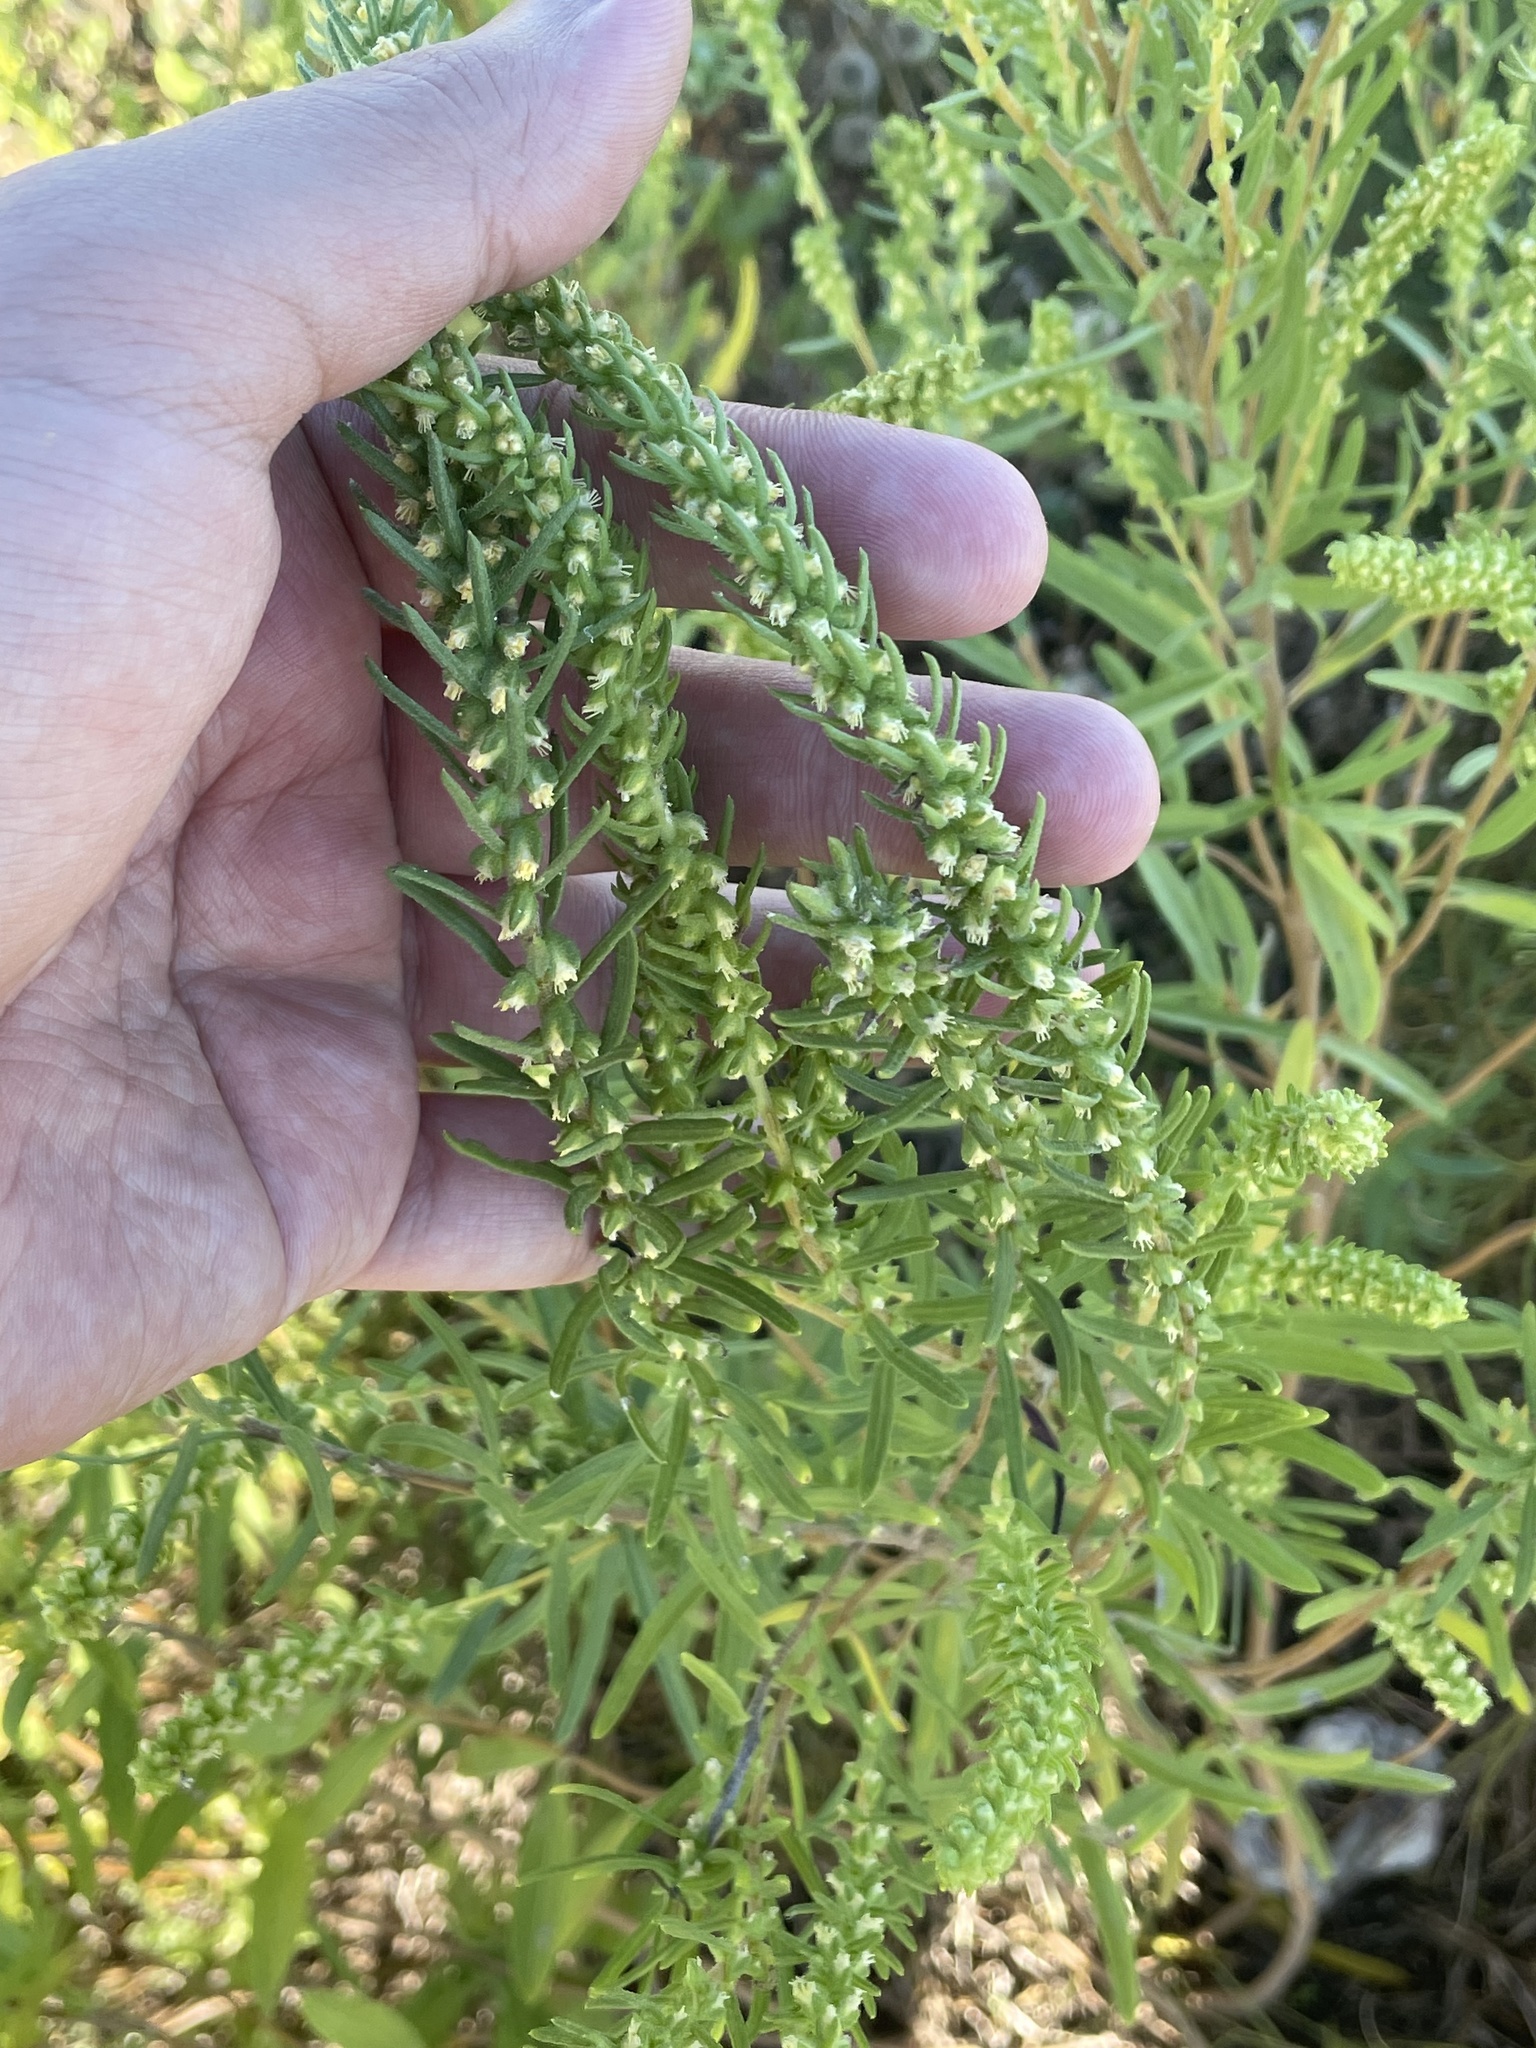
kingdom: Plantae
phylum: Tracheophyta
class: Magnoliopsida
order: Asterales
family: Asteraceae
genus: Iva
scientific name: Iva asperifolia
